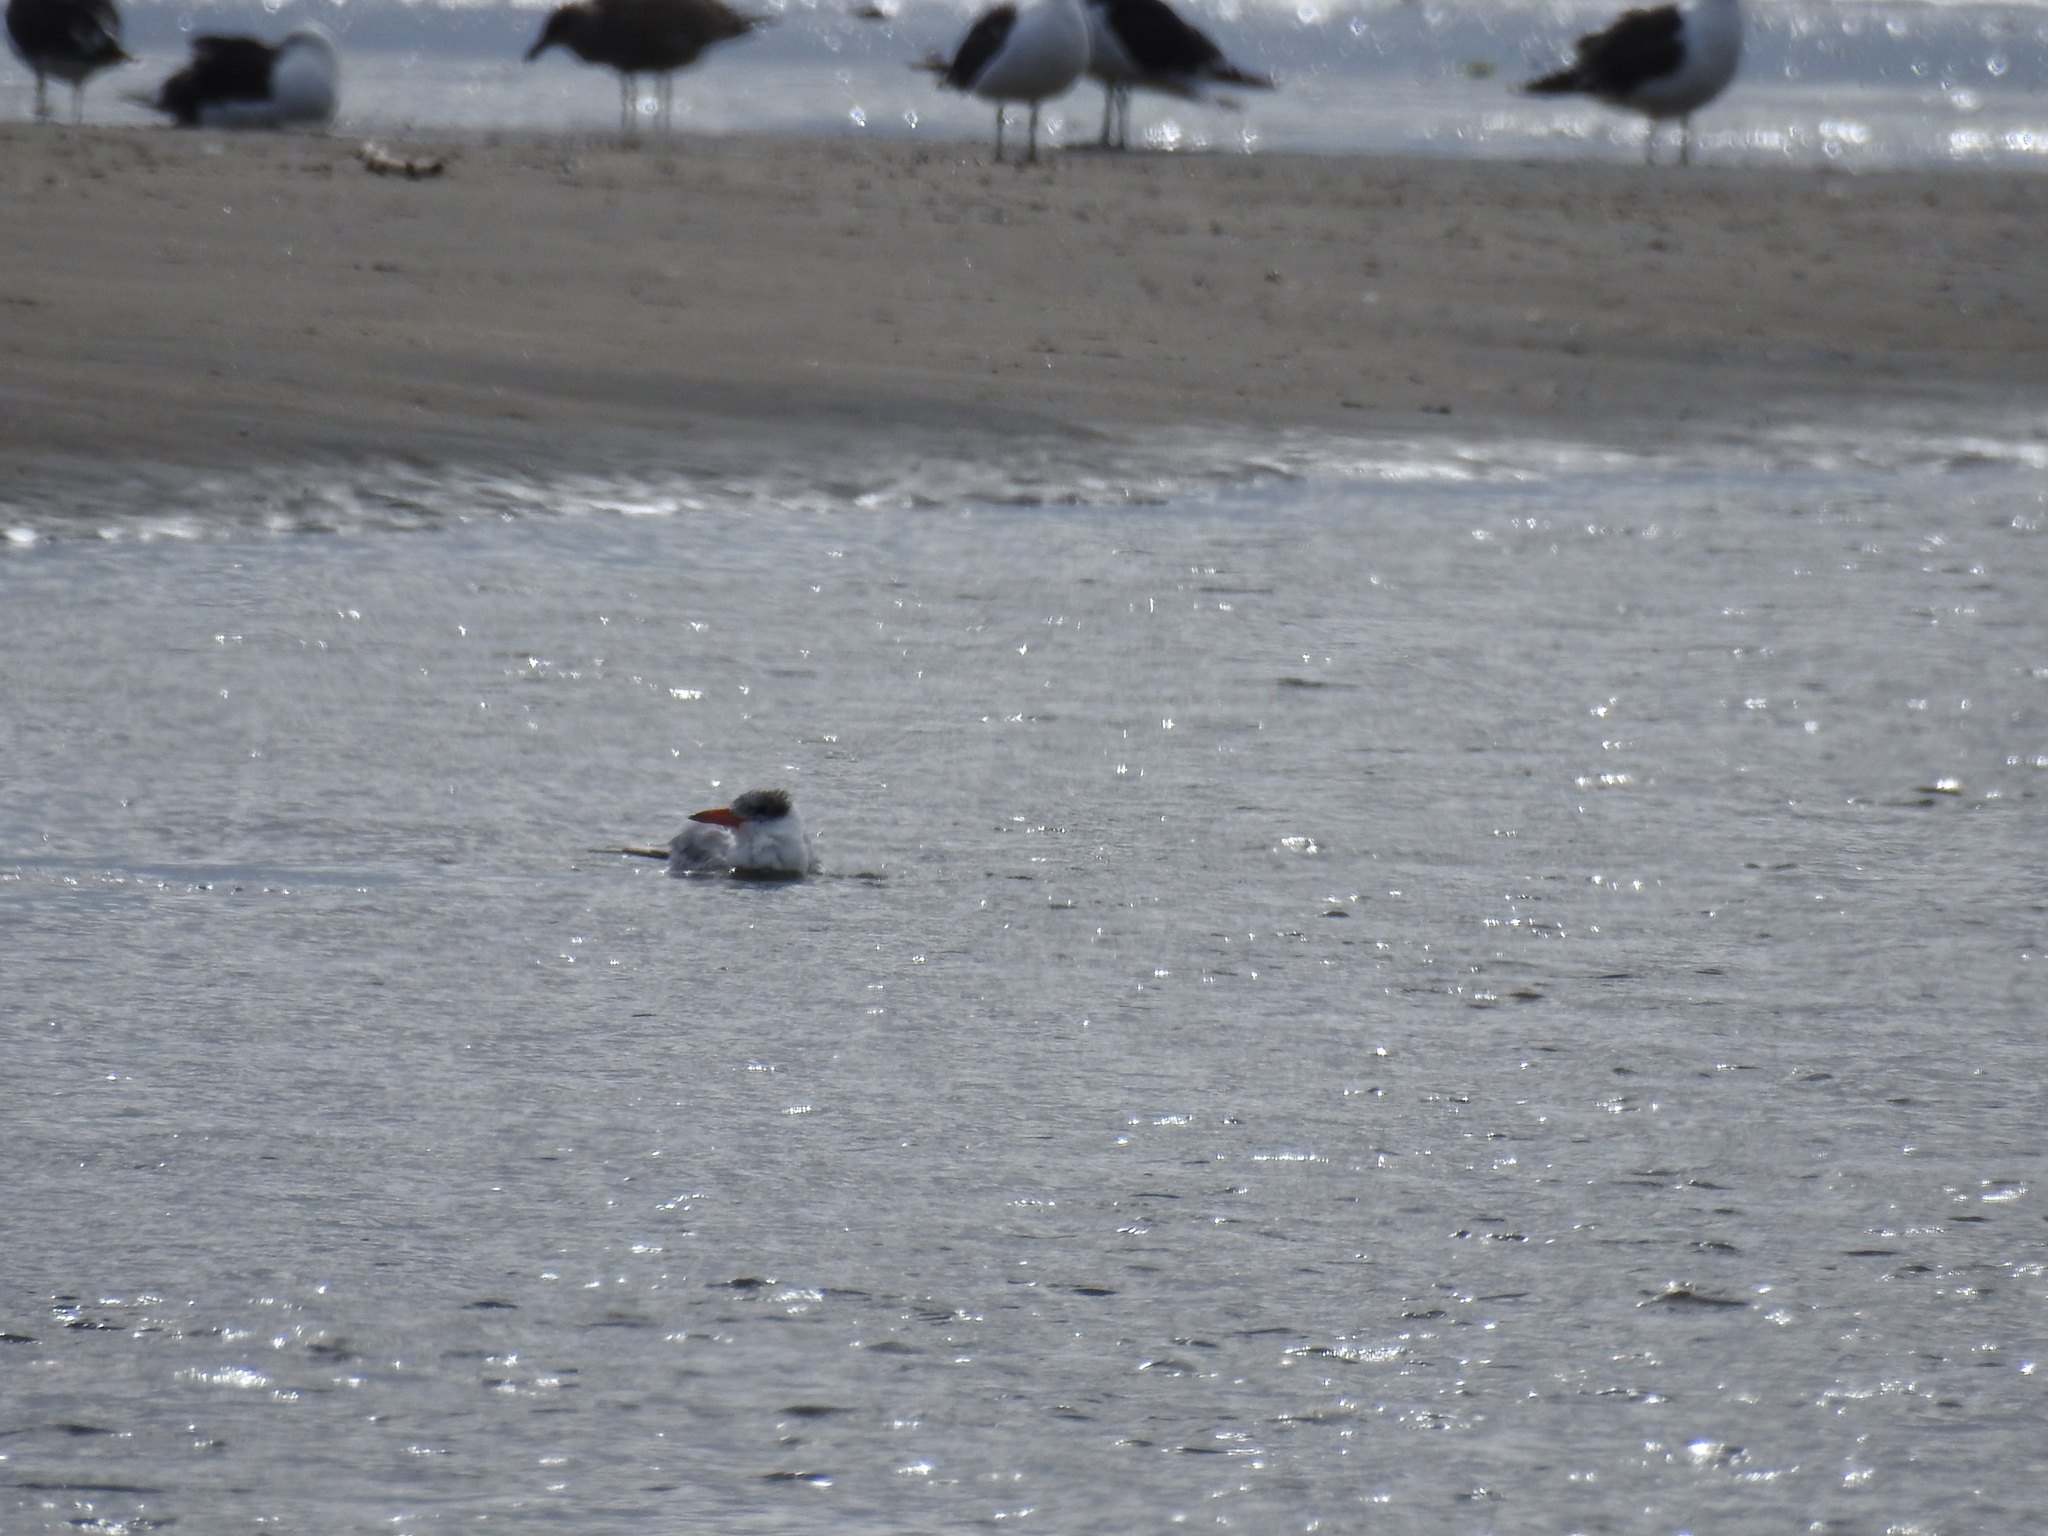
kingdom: Animalia
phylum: Chordata
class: Aves
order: Charadriiformes
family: Laridae
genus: Hydroprogne
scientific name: Hydroprogne caspia
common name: Caspian tern
